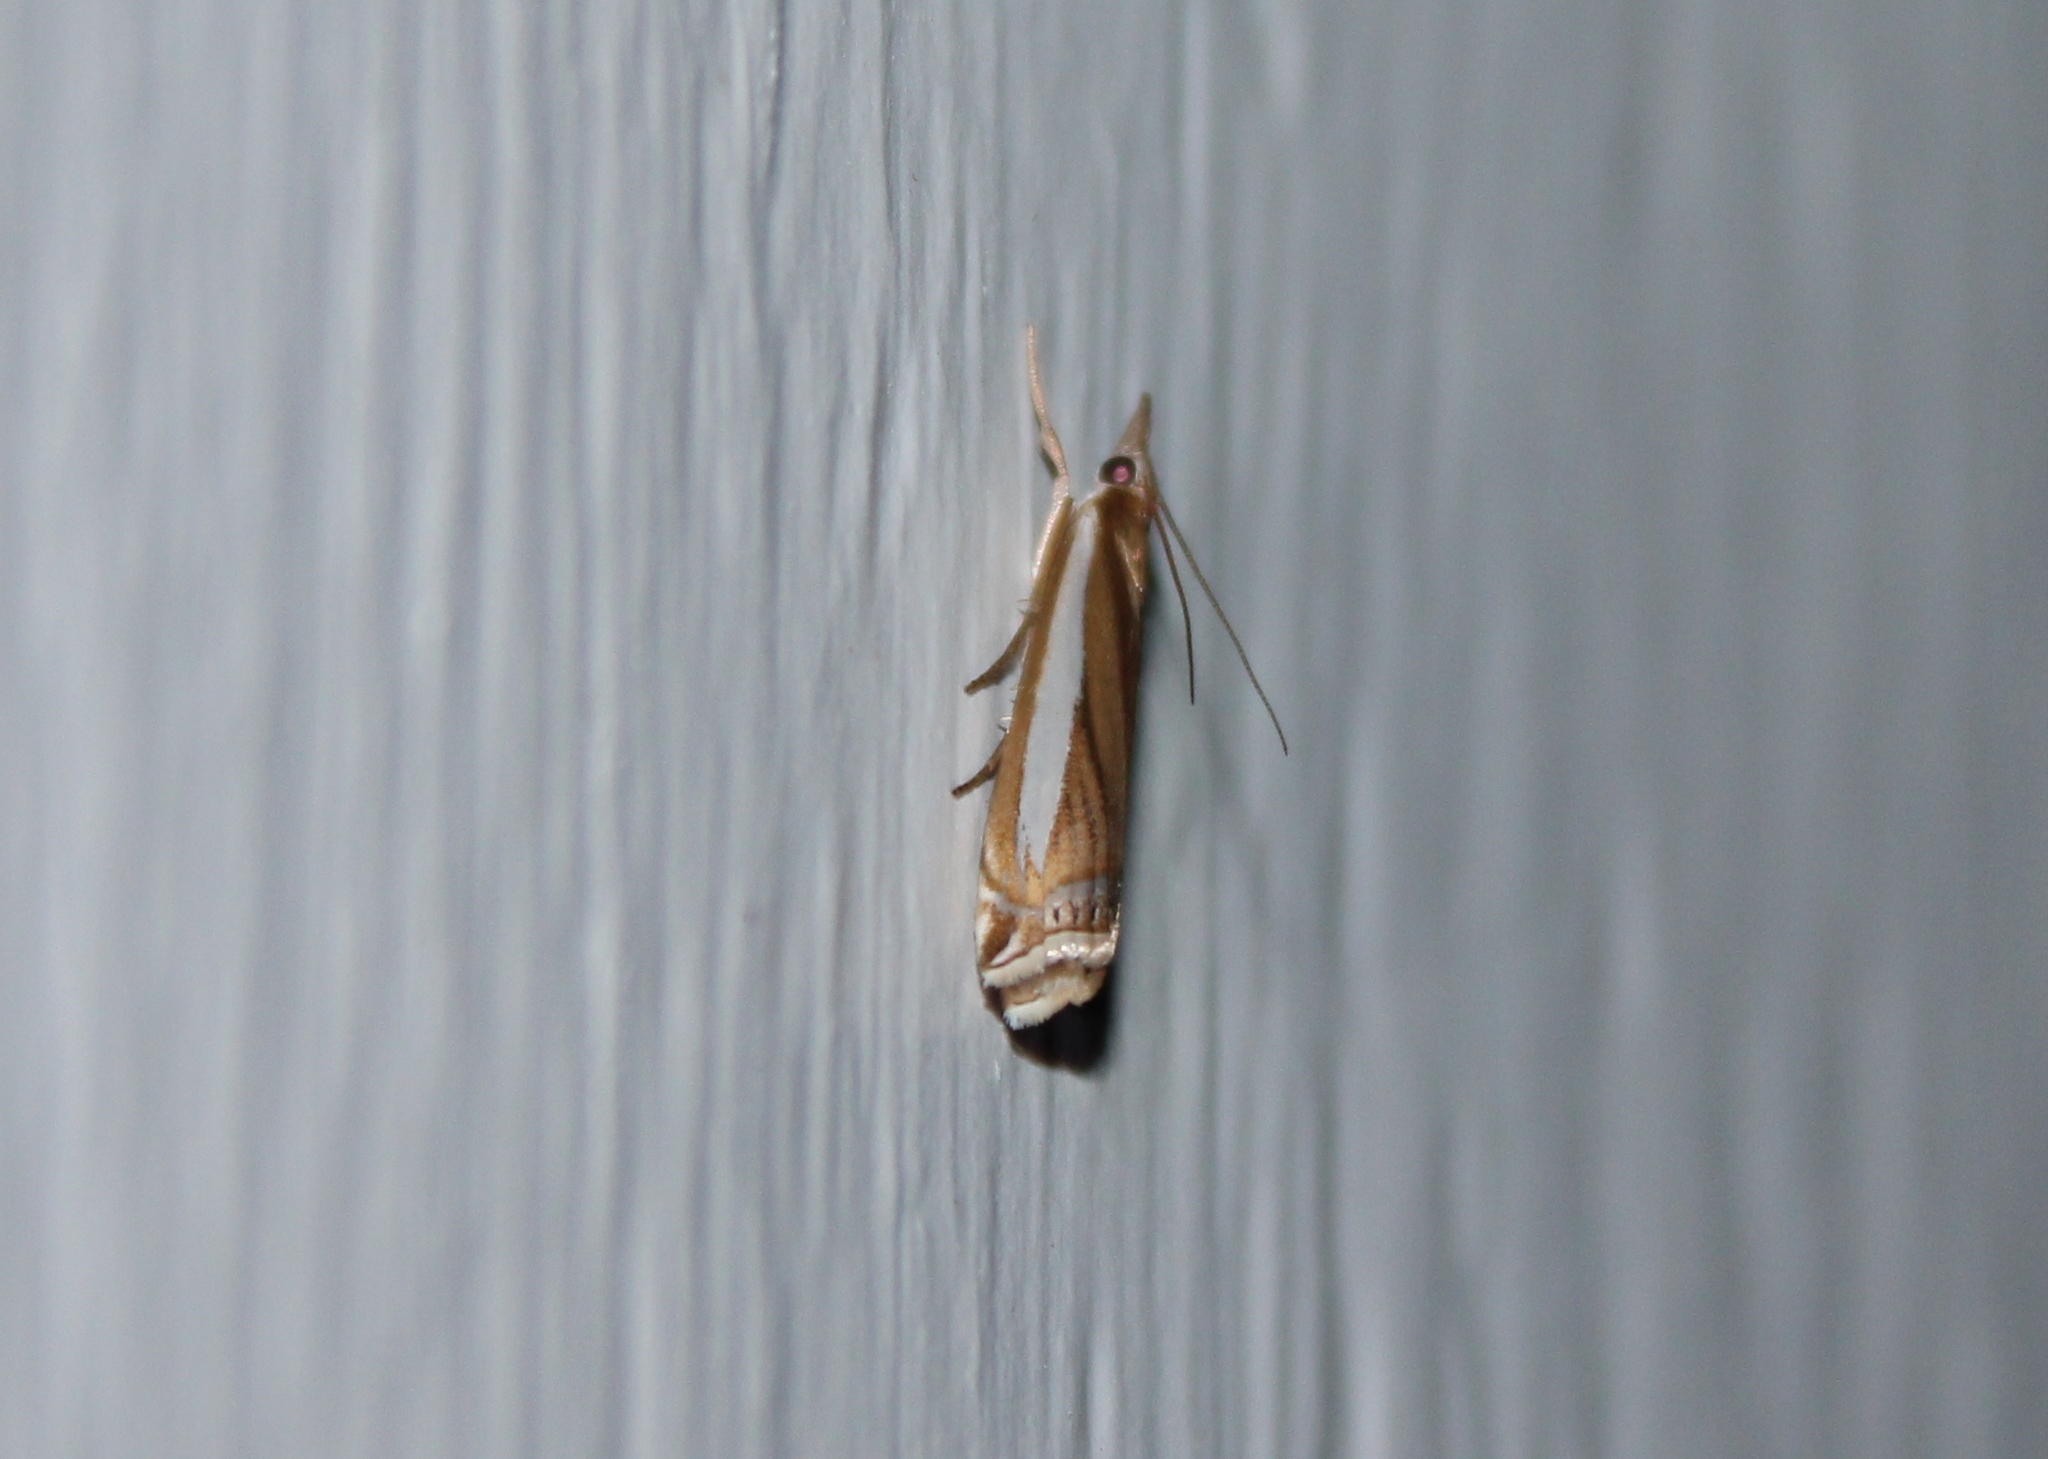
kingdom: Animalia
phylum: Arthropoda
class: Insecta
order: Lepidoptera
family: Crambidae
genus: Crambus
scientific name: Crambus praefectellus
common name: Common grass-veneer
